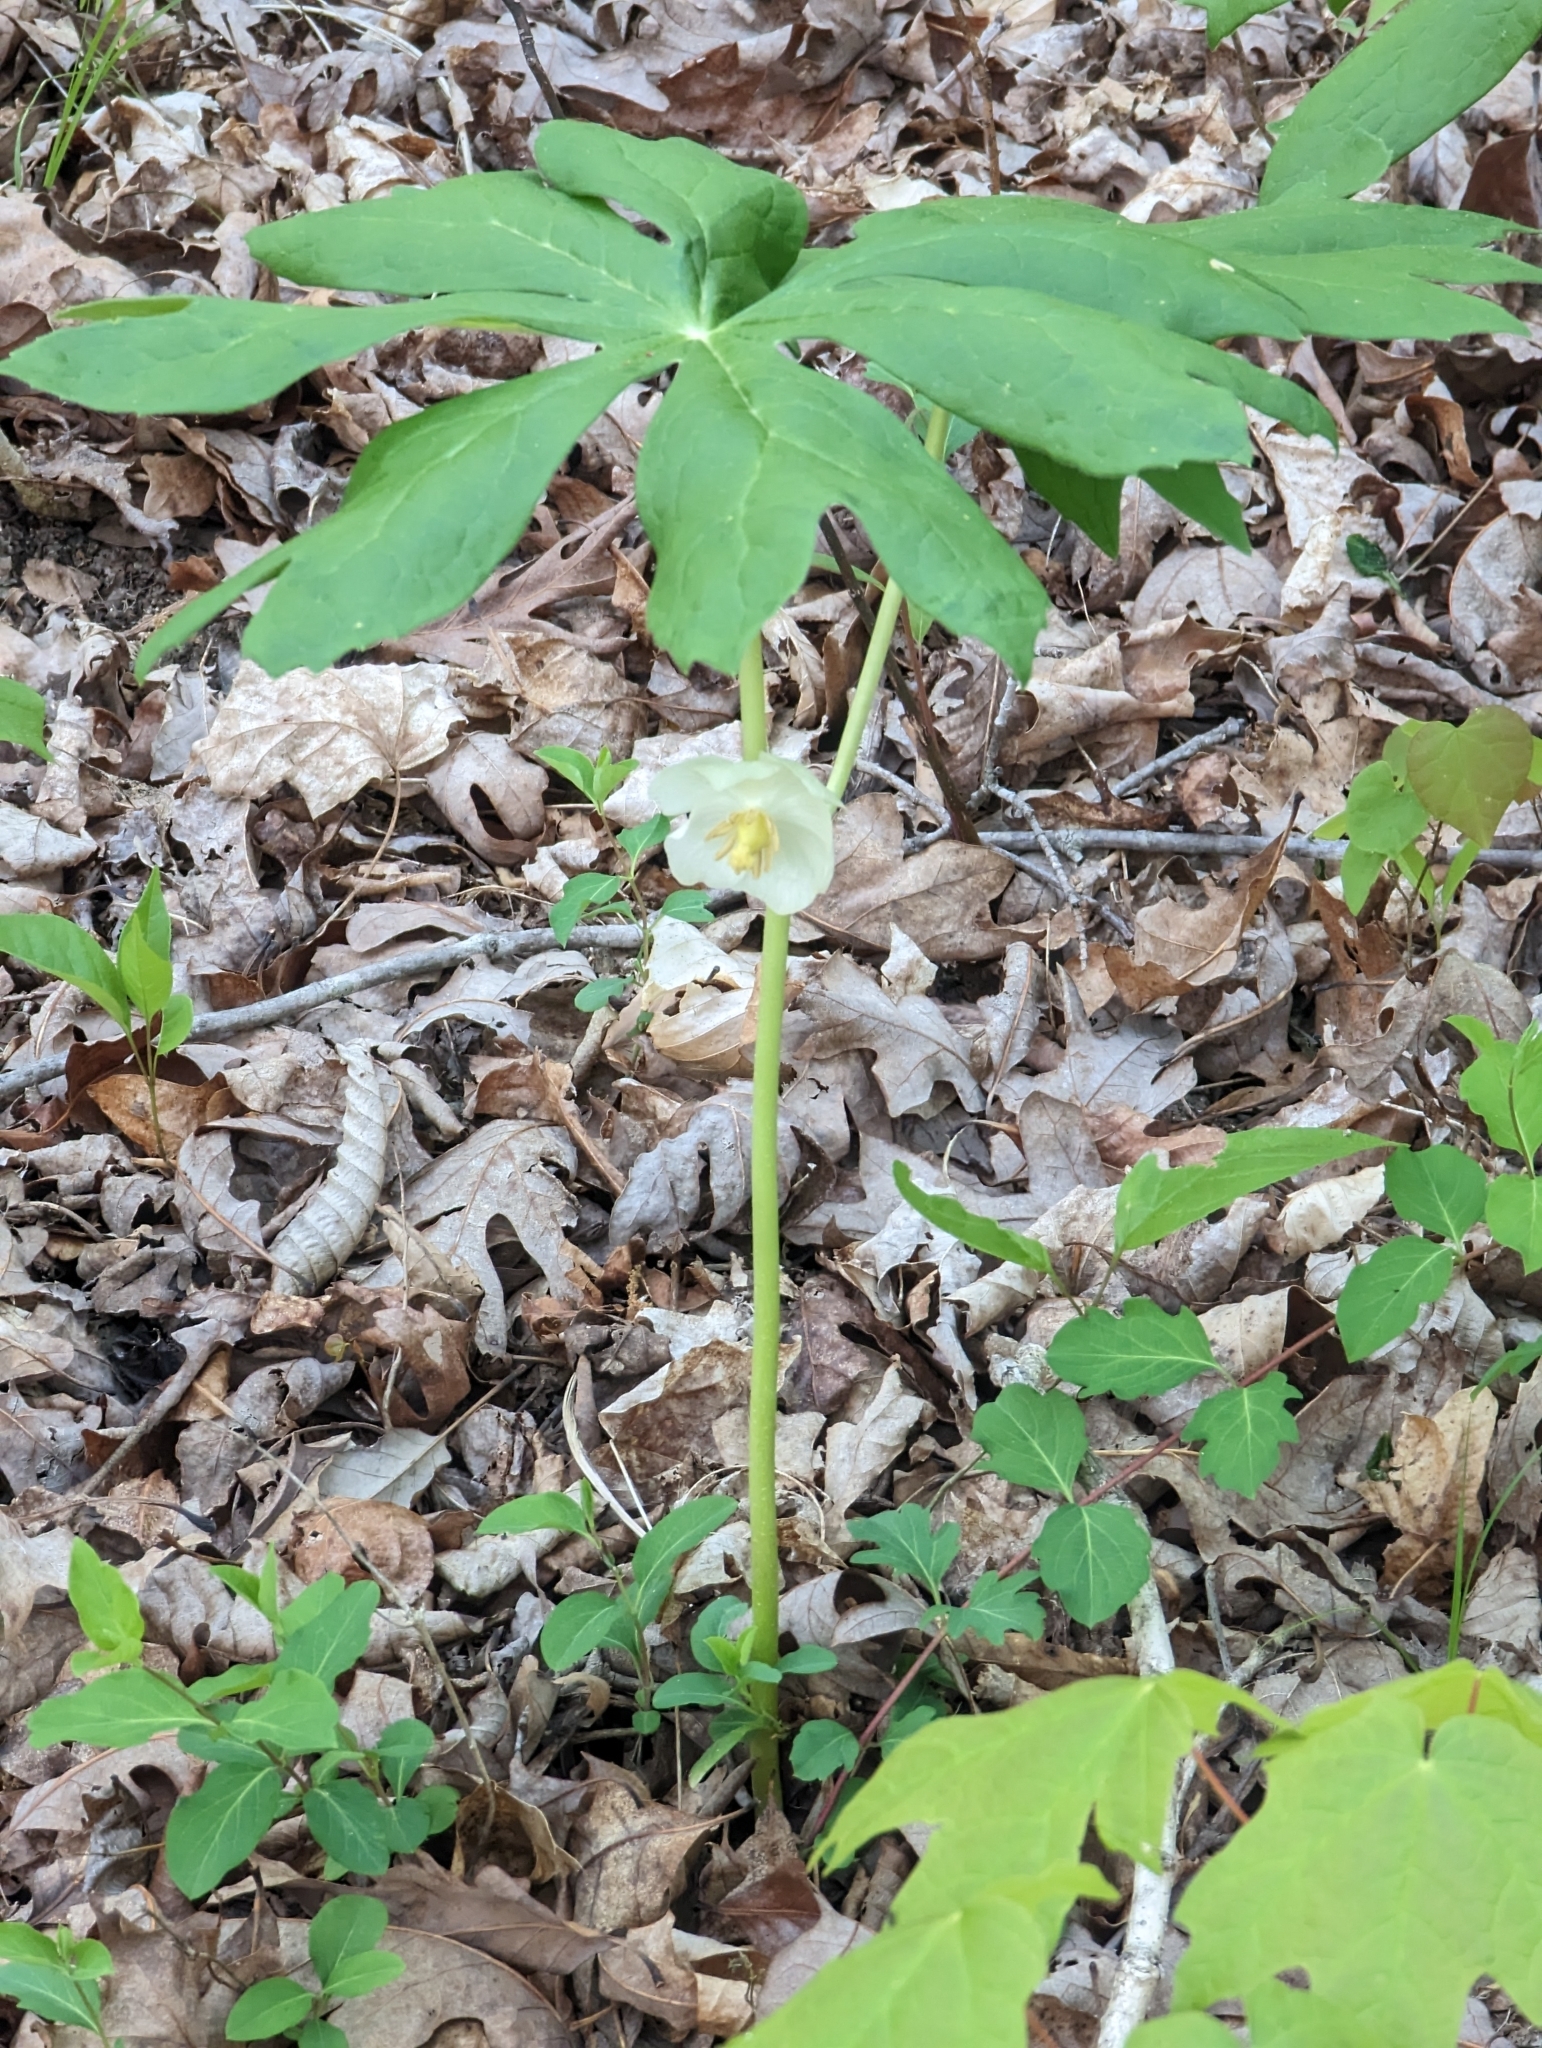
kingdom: Plantae
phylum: Tracheophyta
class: Magnoliopsida
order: Ranunculales
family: Berberidaceae
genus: Podophyllum
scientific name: Podophyllum peltatum
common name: Wild mandrake
